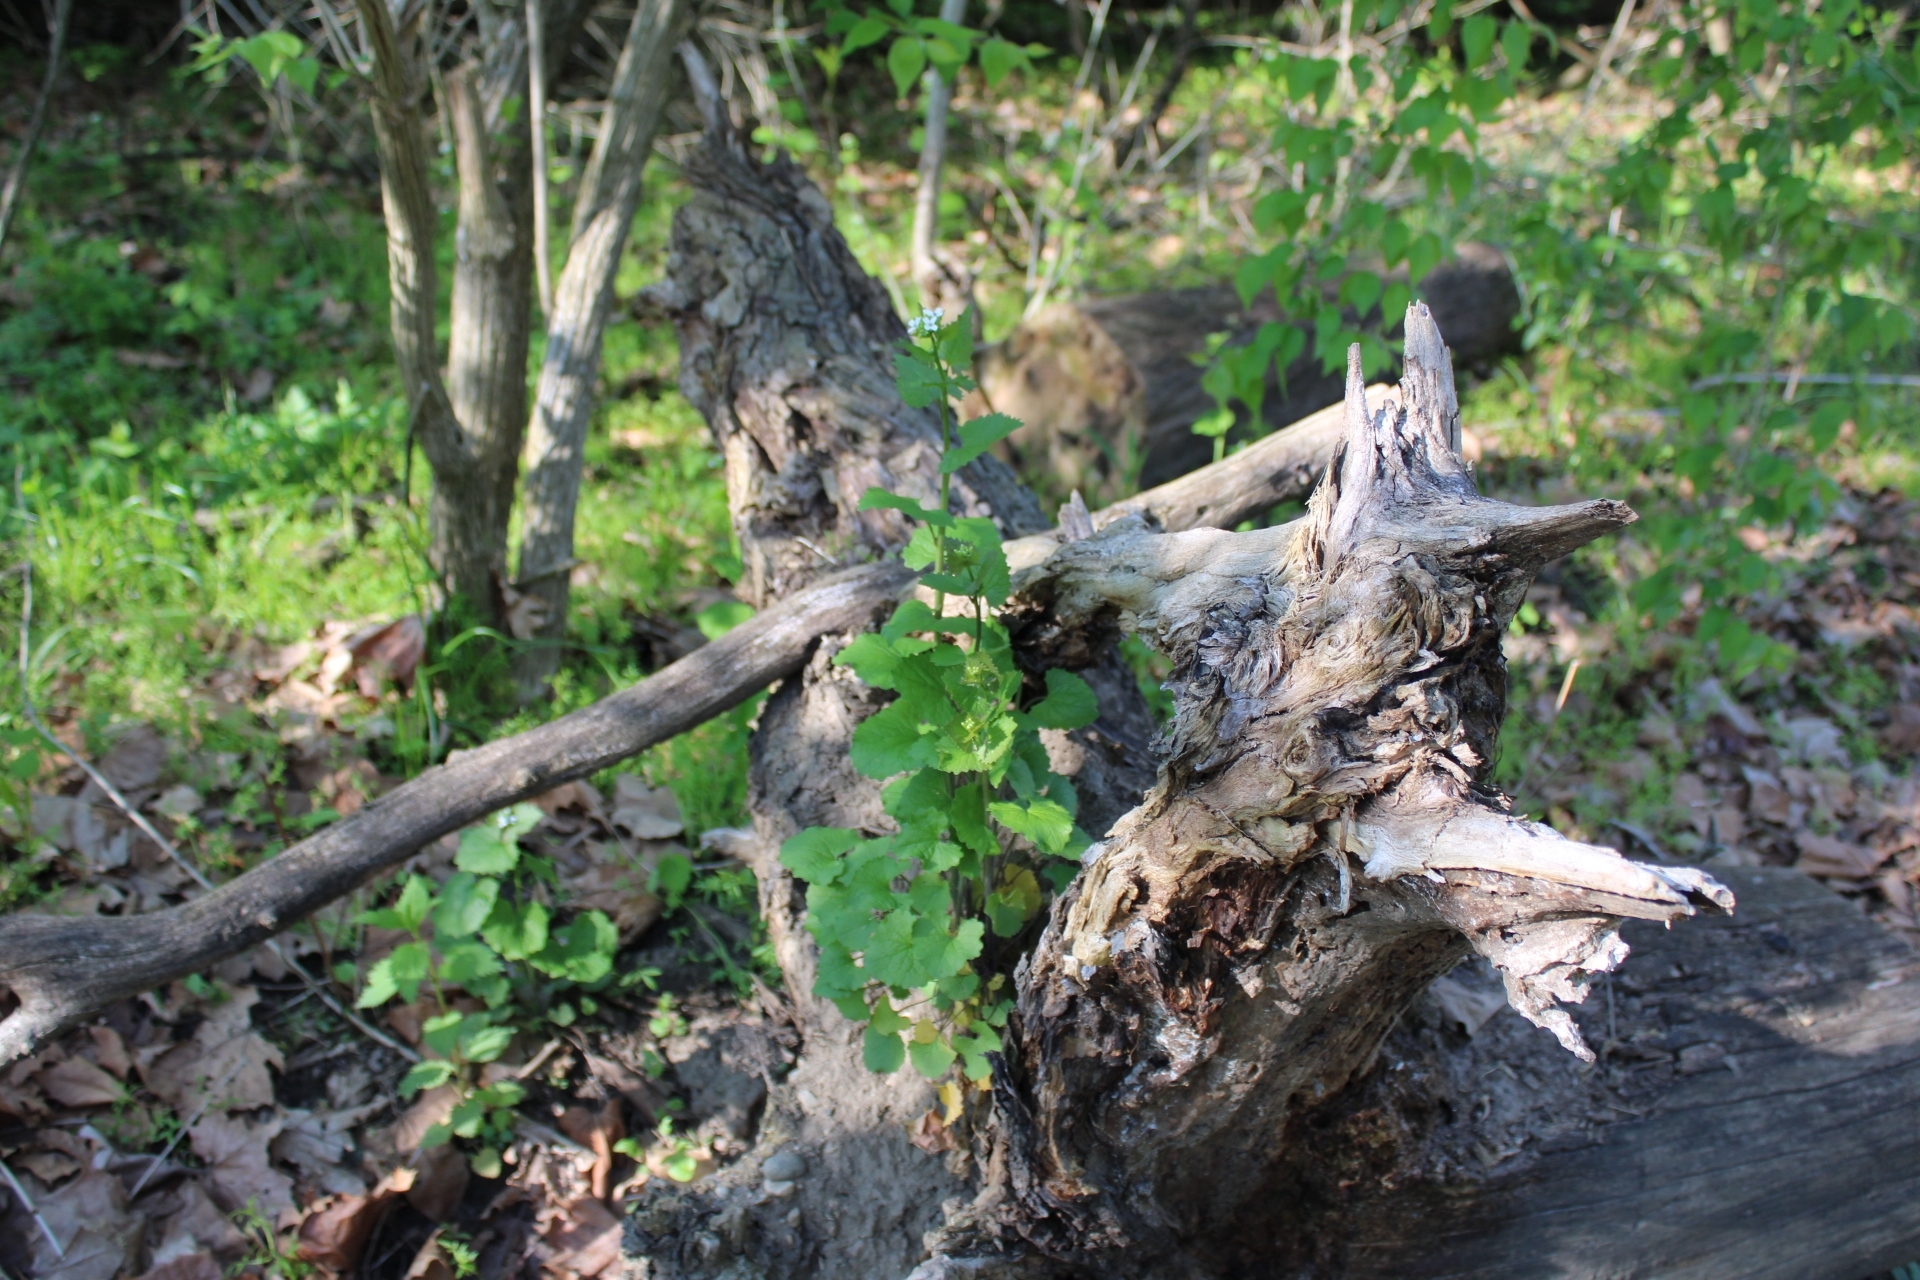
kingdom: Plantae
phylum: Tracheophyta
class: Magnoliopsida
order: Brassicales
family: Brassicaceae
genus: Alliaria
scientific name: Alliaria petiolata
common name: Garlic mustard
